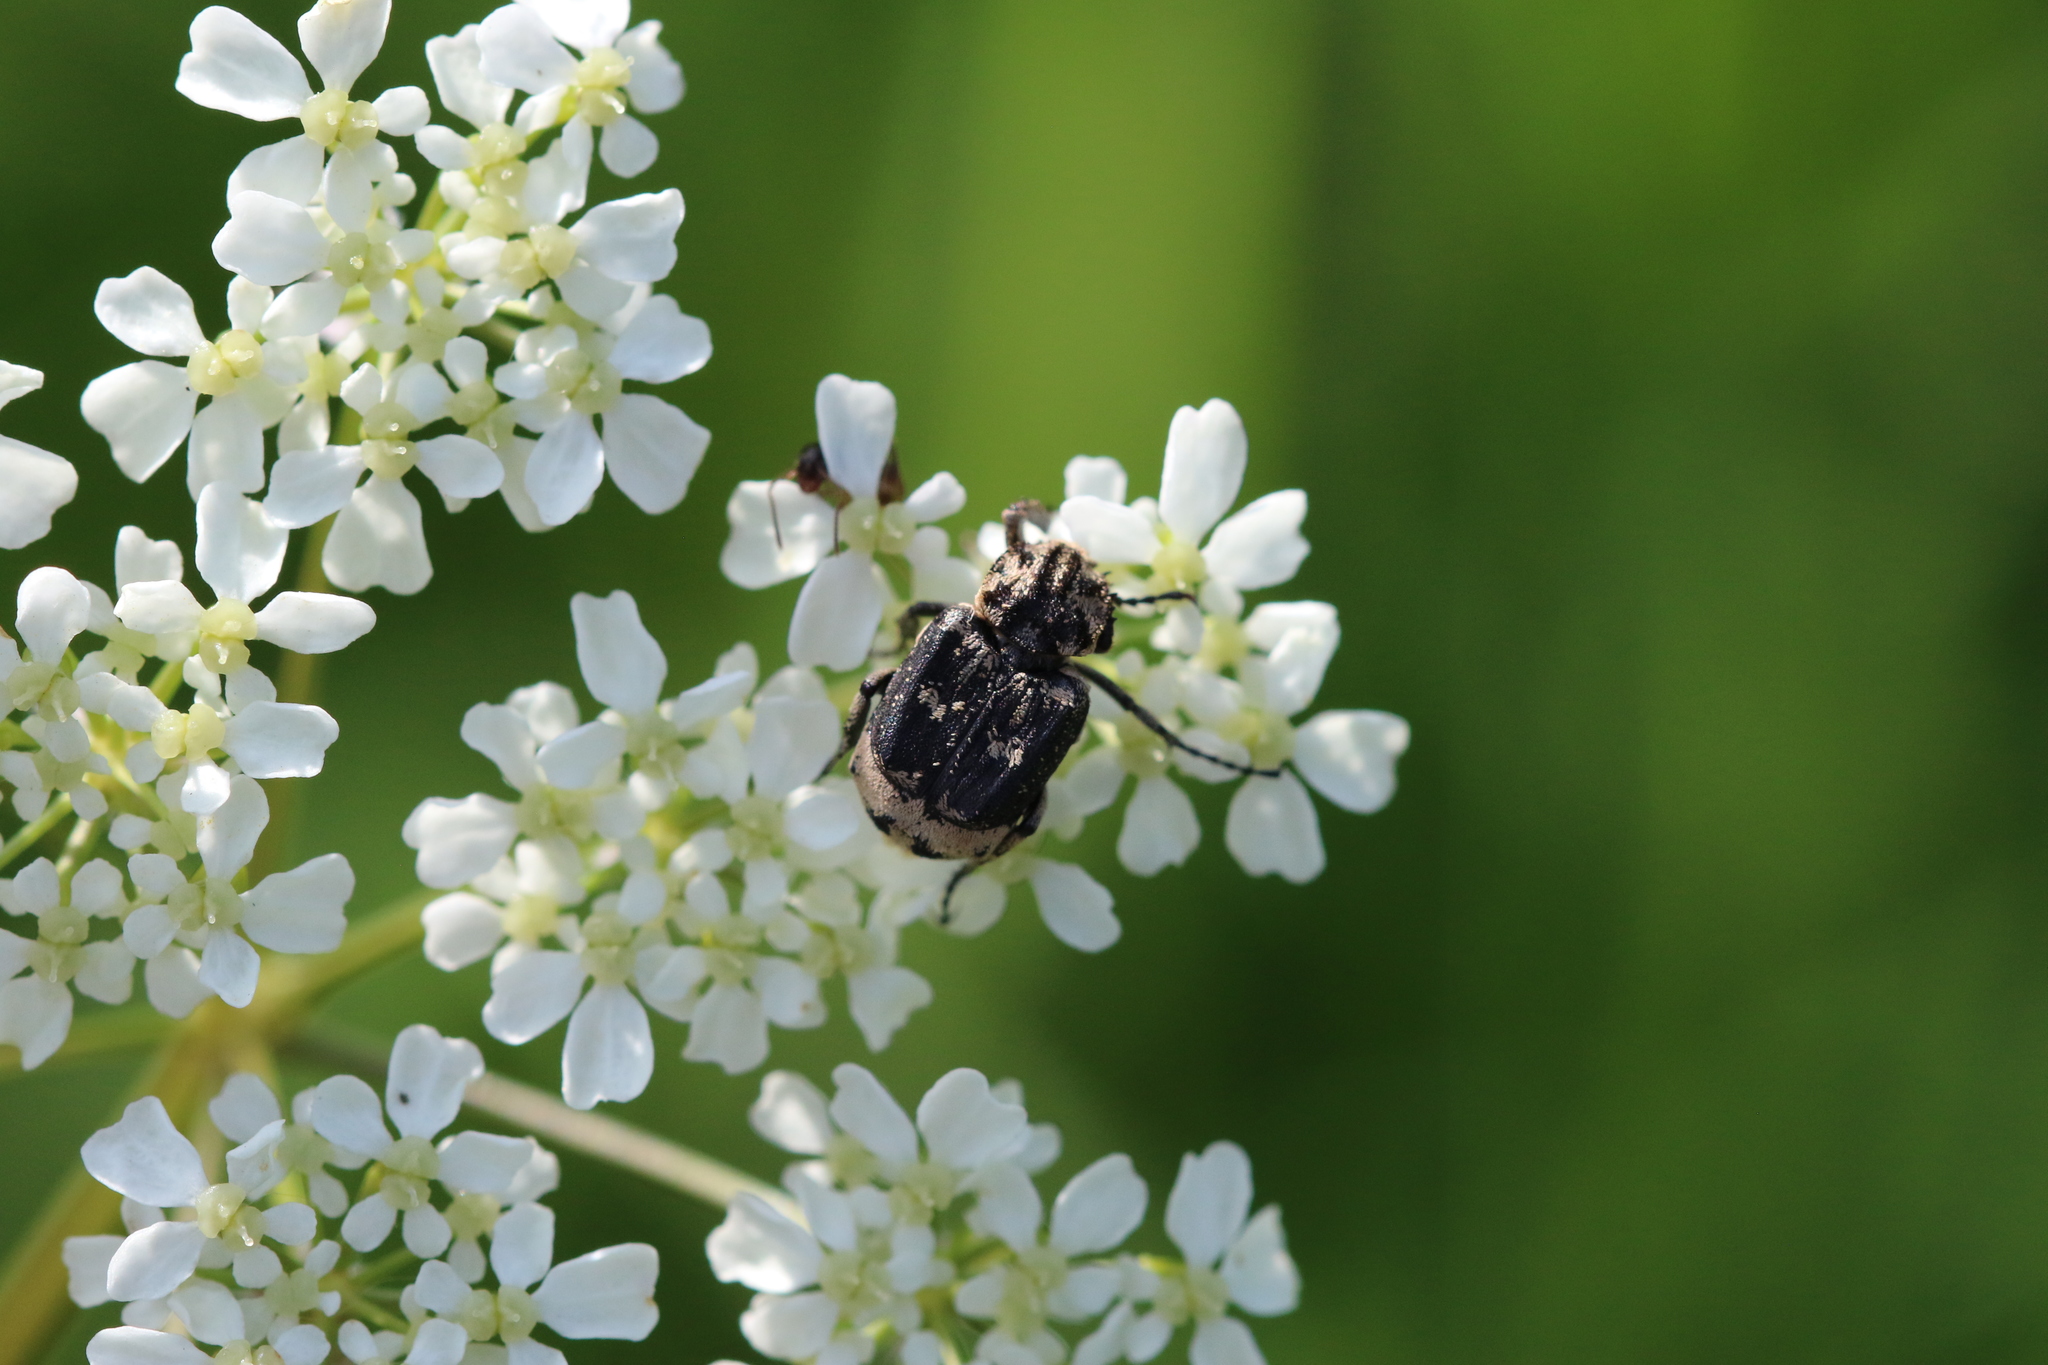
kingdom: Animalia
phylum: Arthropoda
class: Insecta
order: Coleoptera
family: Scarabaeidae
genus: Valgus
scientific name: Valgus hemipterus
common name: Bug flower chafer
